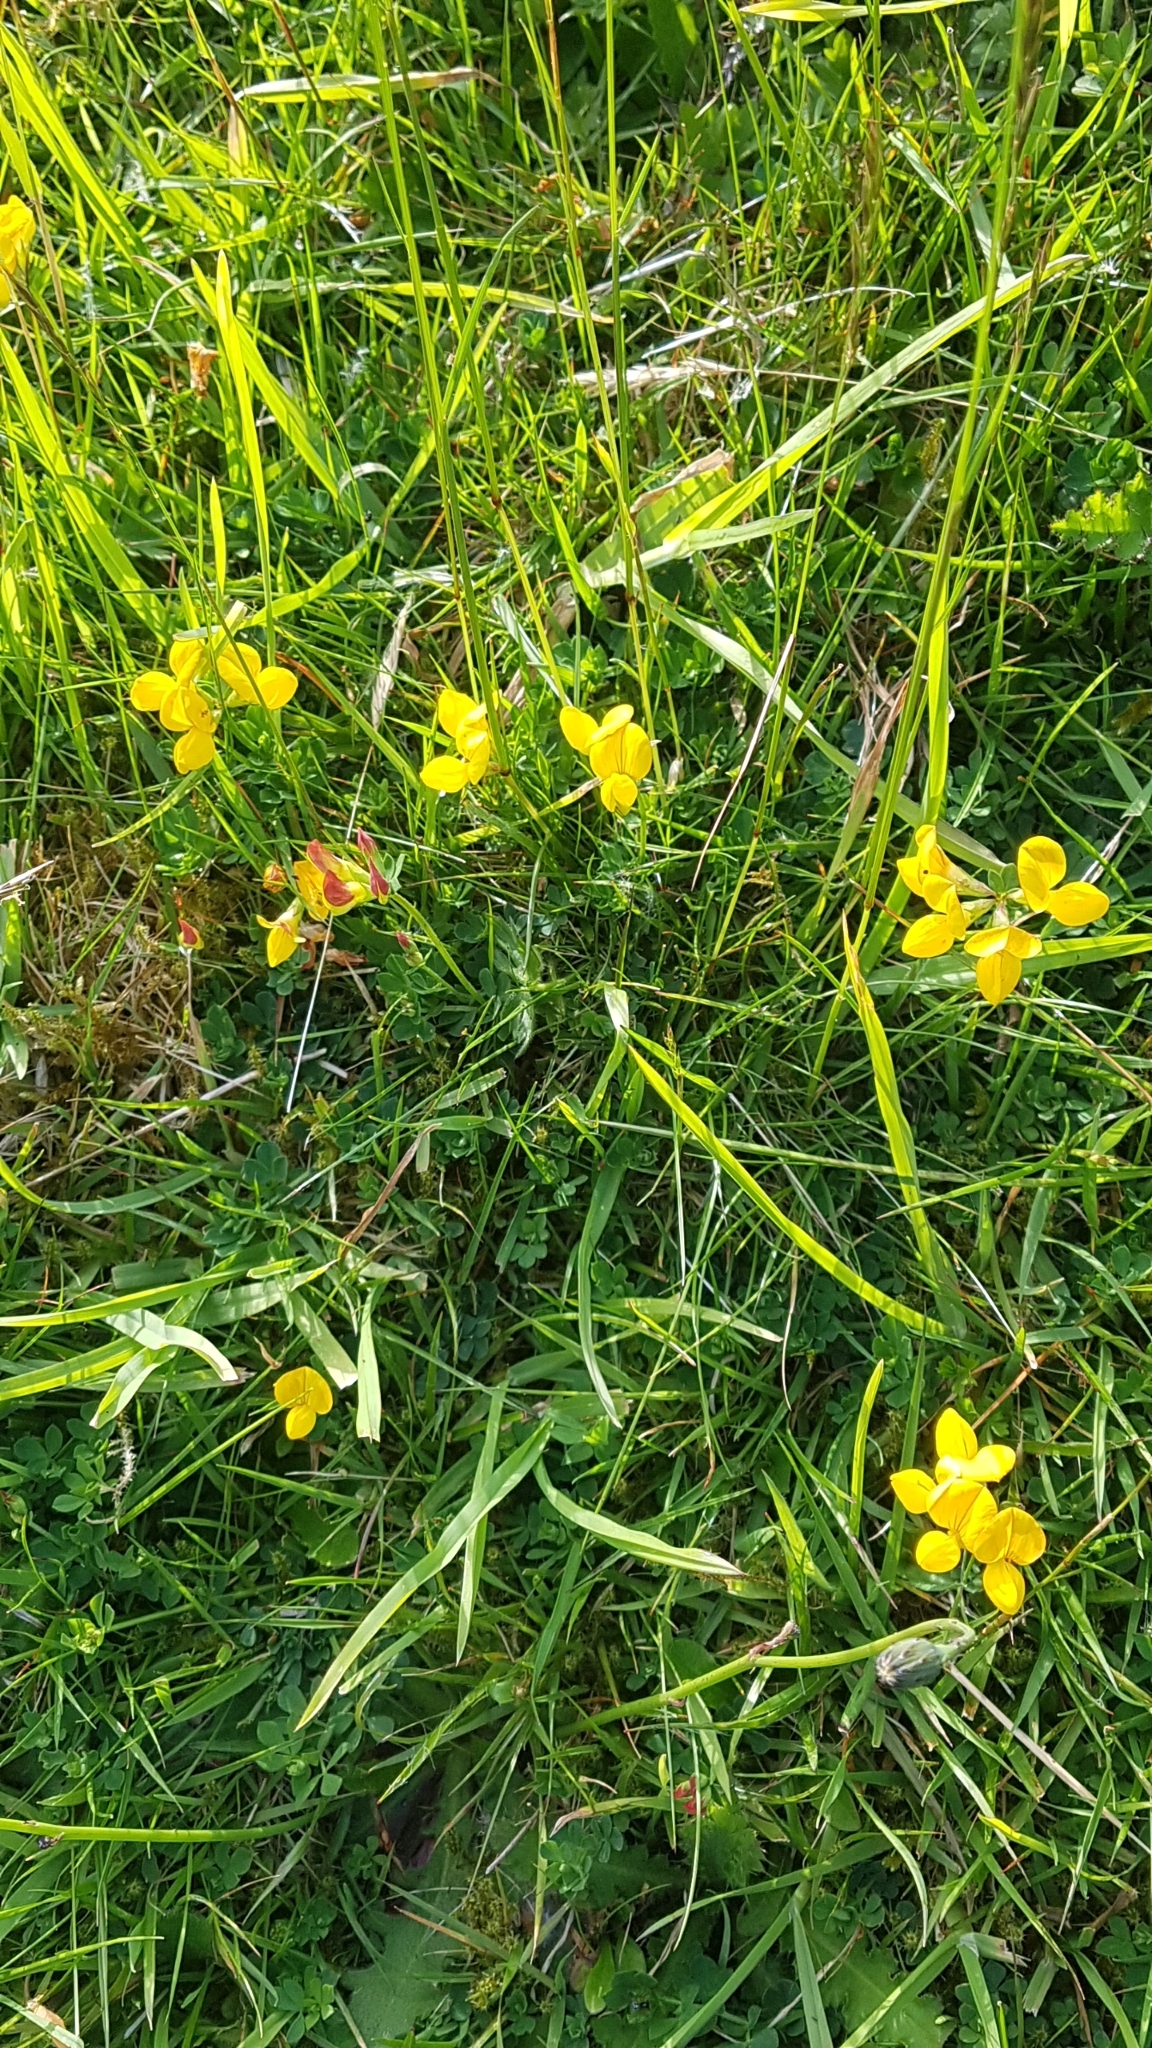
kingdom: Plantae
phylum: Tracheophyta
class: Magnoliopsida
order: Fabales
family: Fabaceae
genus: Lotus
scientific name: Lotus corniculatus
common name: Common bird's-foot-trefoil
